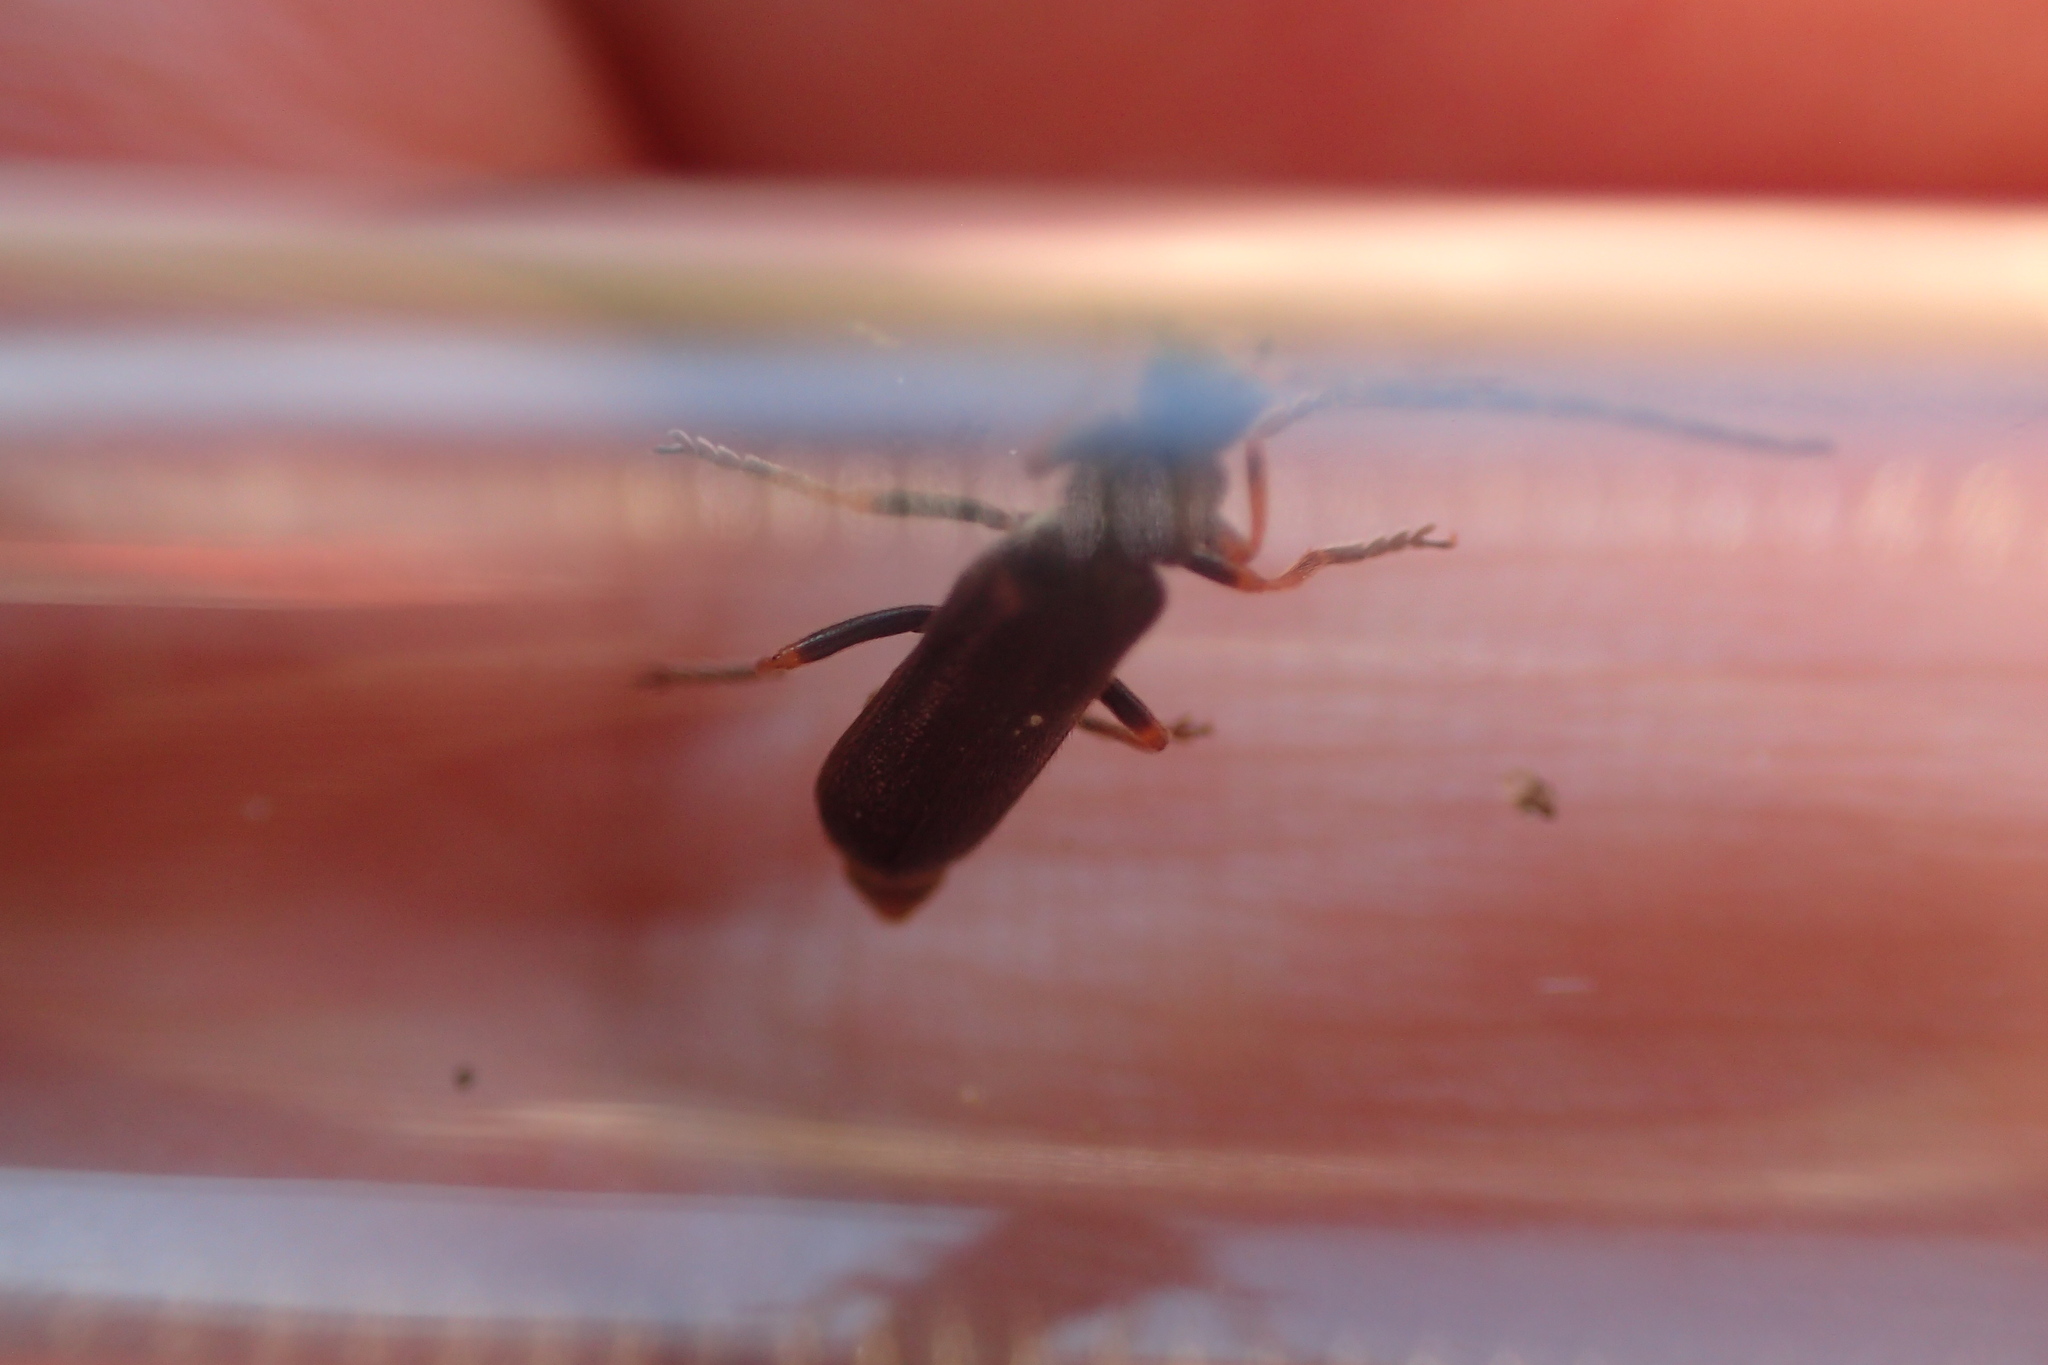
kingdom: Animalia
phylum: Arthropoda
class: Insecta
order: Coleoptera
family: Cantharidae
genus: Cantharis
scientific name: Cantharis flavilabris
